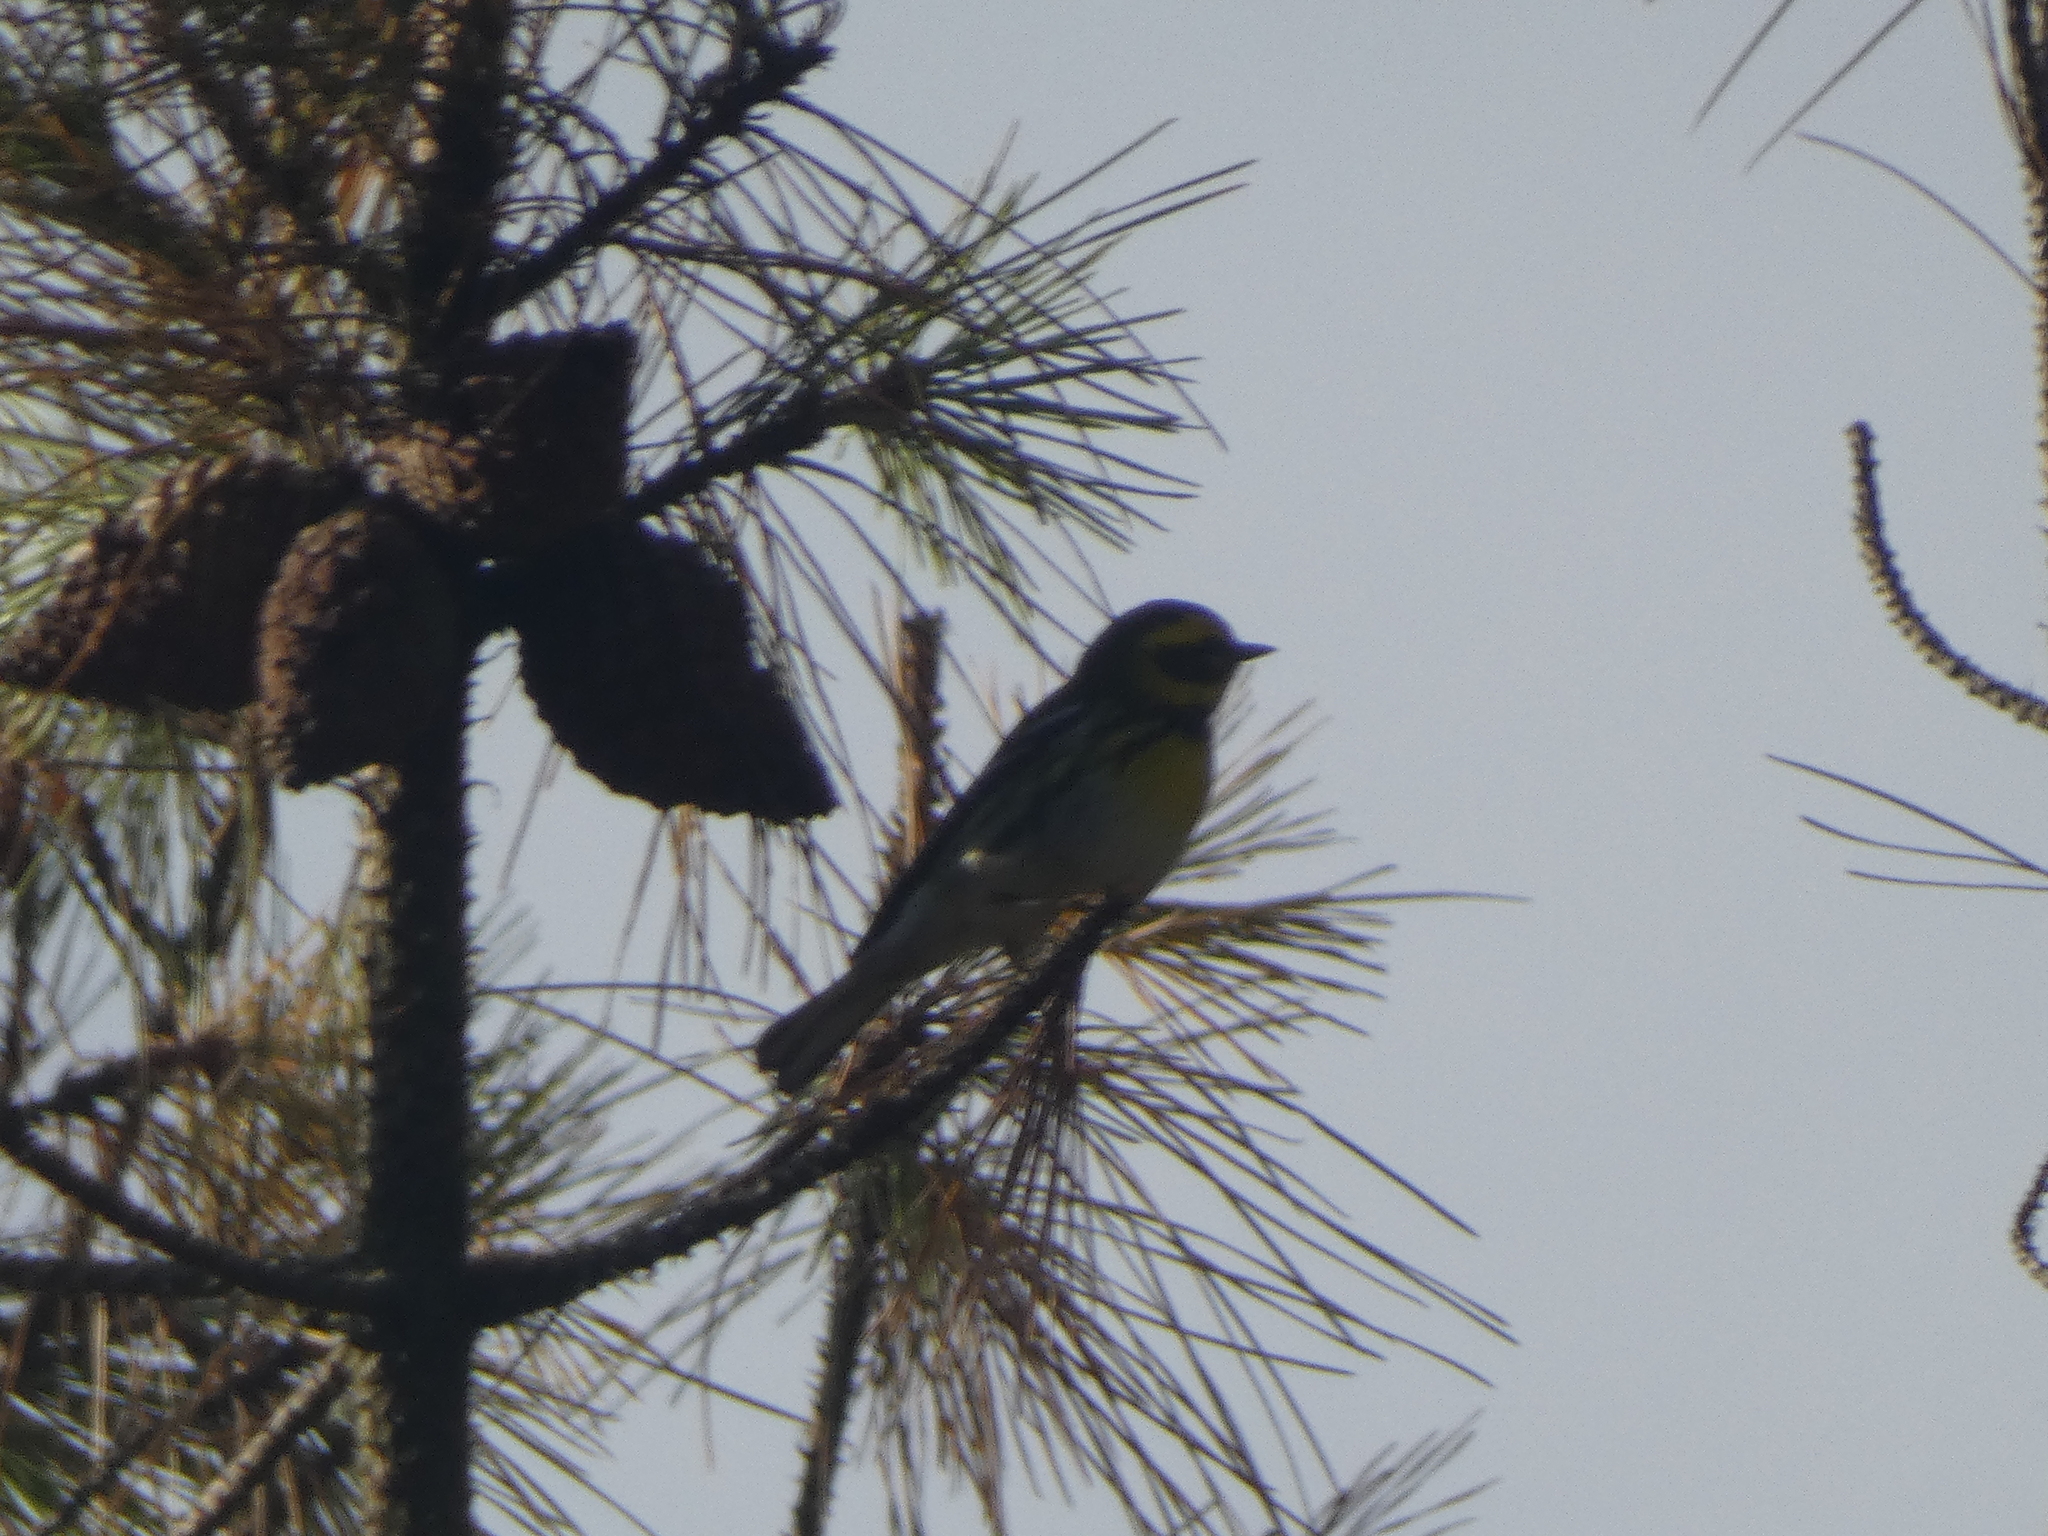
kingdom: Animalia
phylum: Chordata
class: Aves
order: Passeriformes
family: Parulidae
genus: Setophaga
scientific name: Setophaga townsendi
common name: Townsend's warbler
